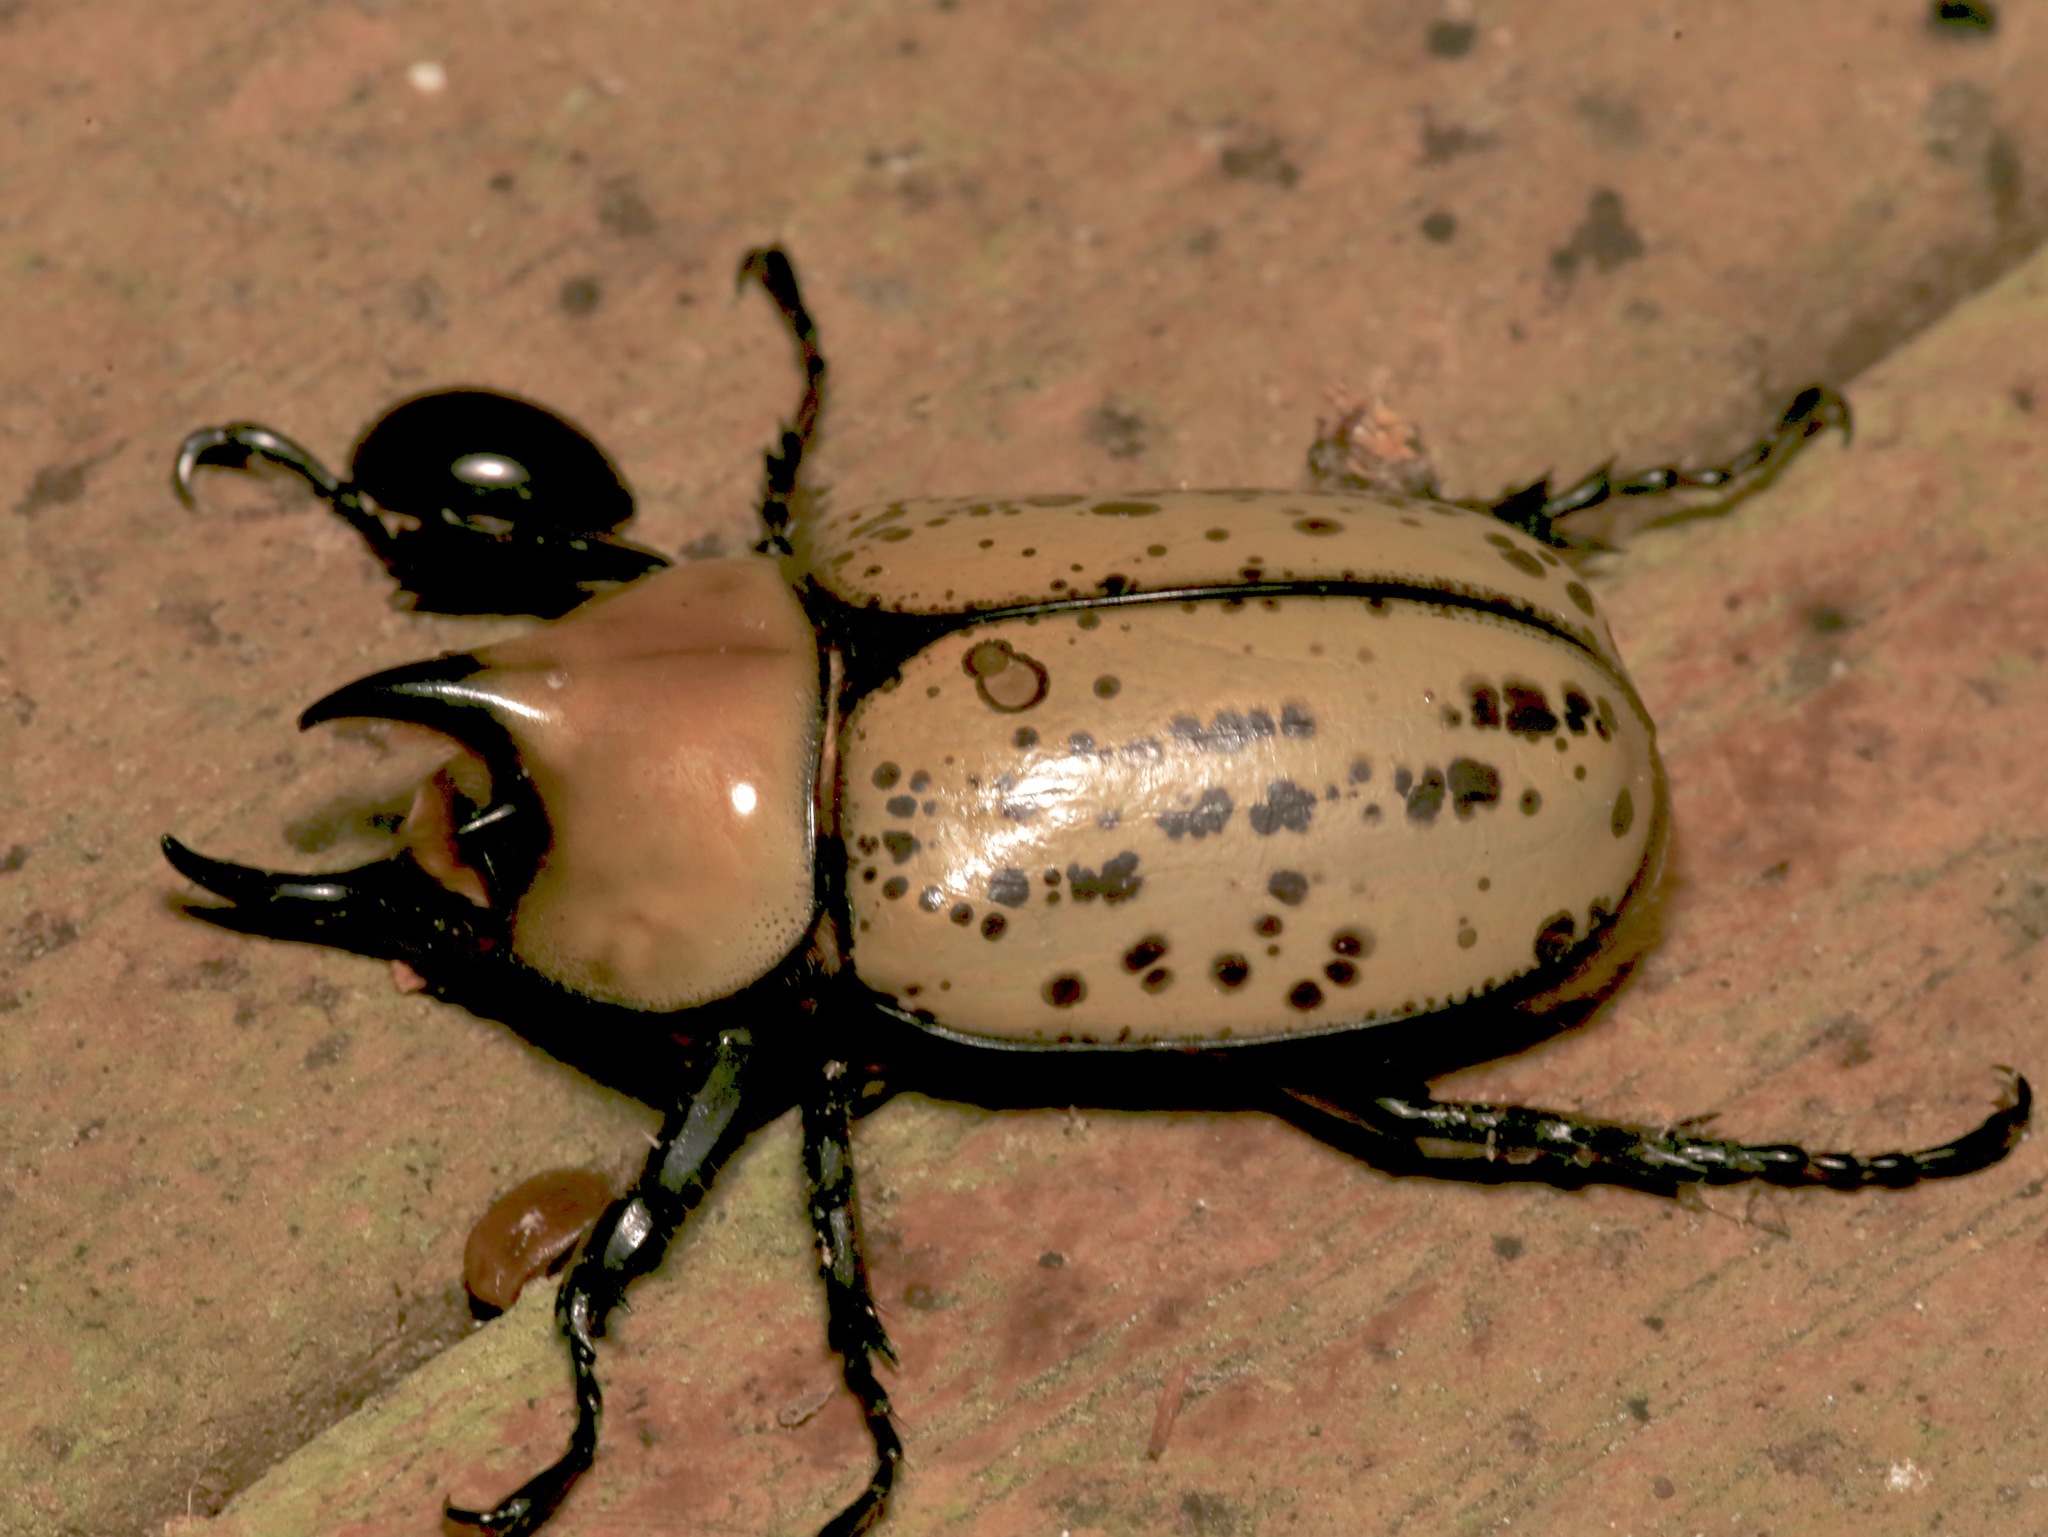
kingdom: Animalia
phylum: Arthropoda
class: Insecta
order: Coleoptera
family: Scarabaeidae
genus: Dynastes
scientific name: Dynastes tityus
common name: Eastern hercules beetle
